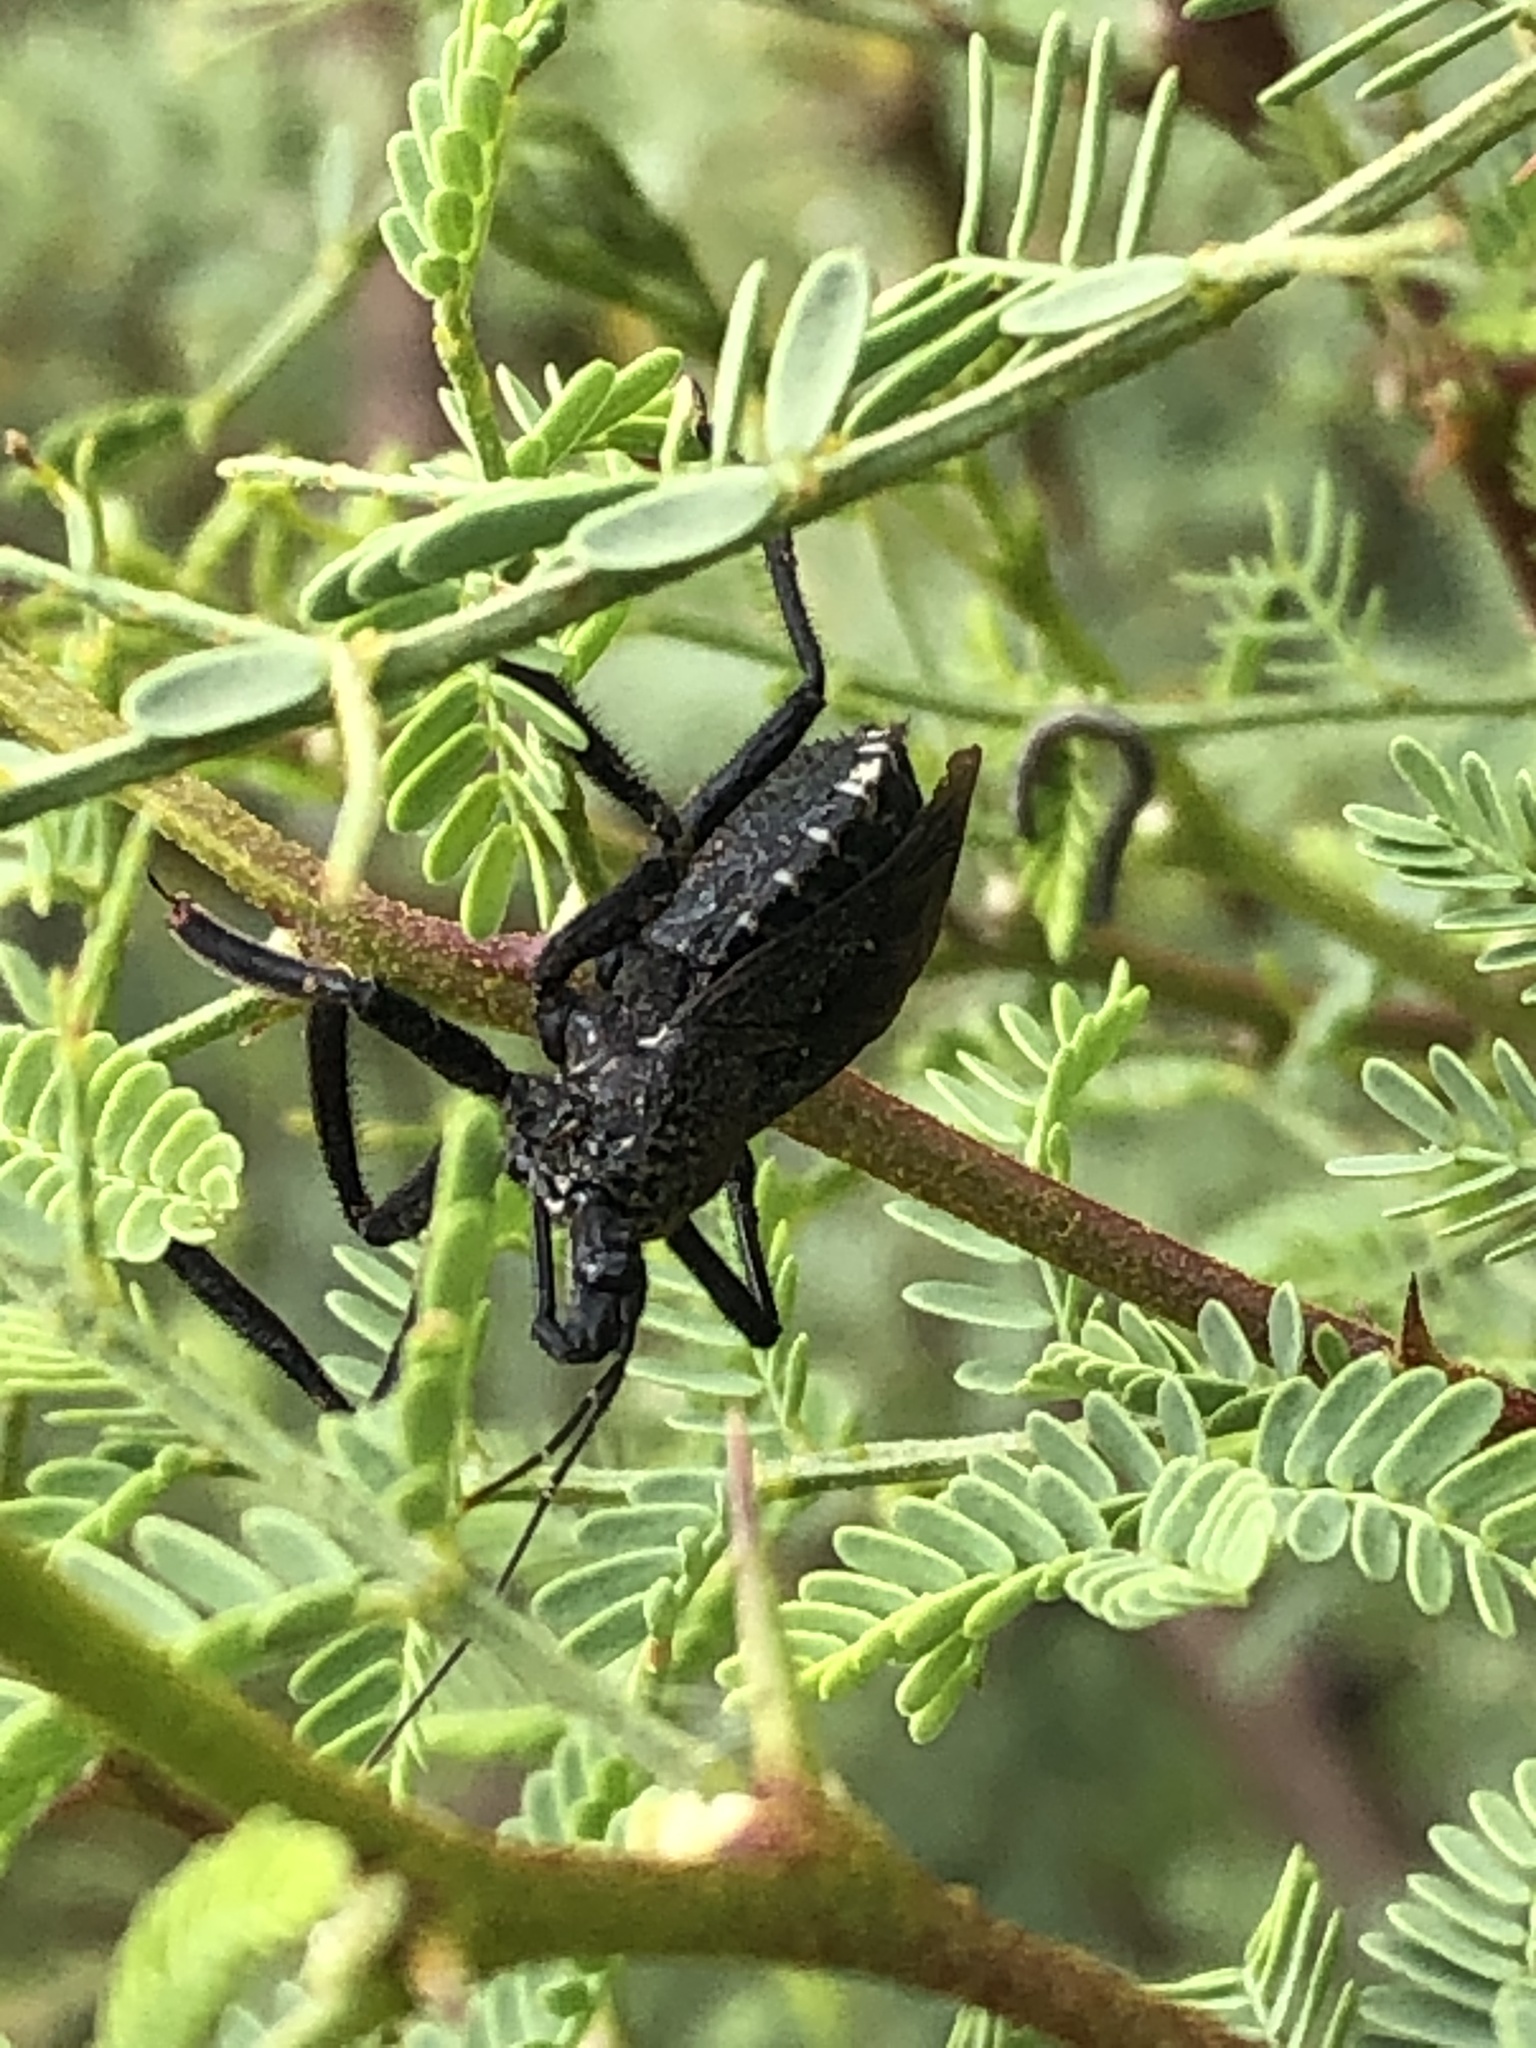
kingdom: Animalia
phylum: Arthropoda
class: Insecta
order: Hemiptera
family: Reduviidae
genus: Apiomerus
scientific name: Apiomerus longispinis
